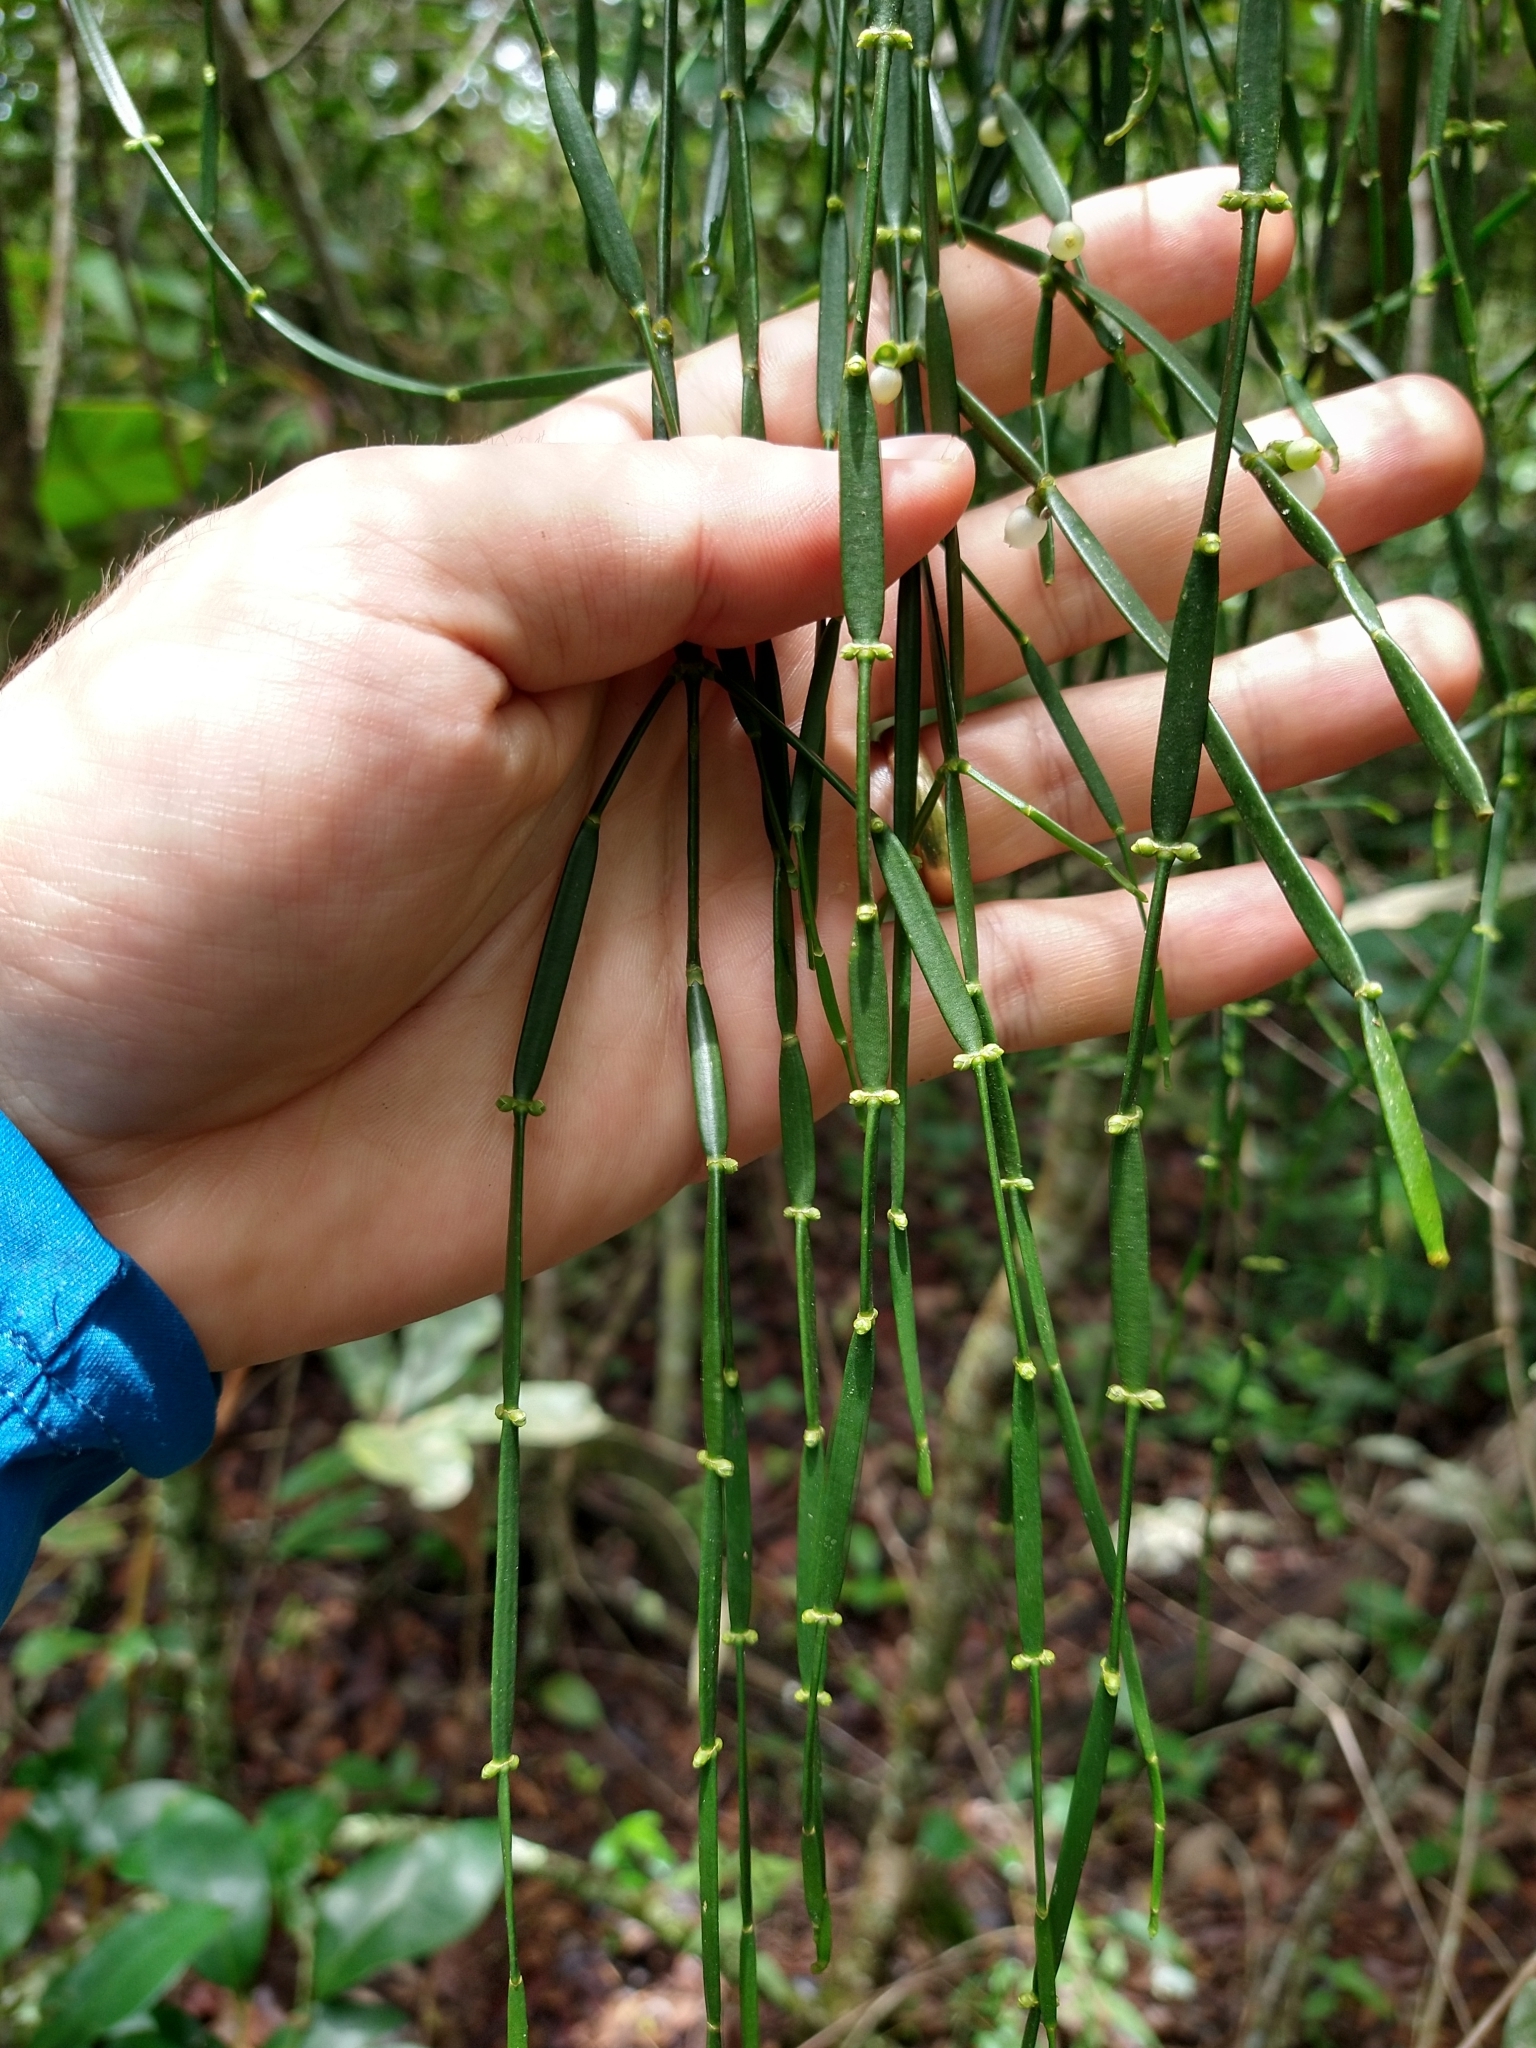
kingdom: Plantae
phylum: Tracheophyta
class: Magnoliopsida
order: Santalales
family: Viscaceae
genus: Phoradendron
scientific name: Phoradendron tunaeforme
